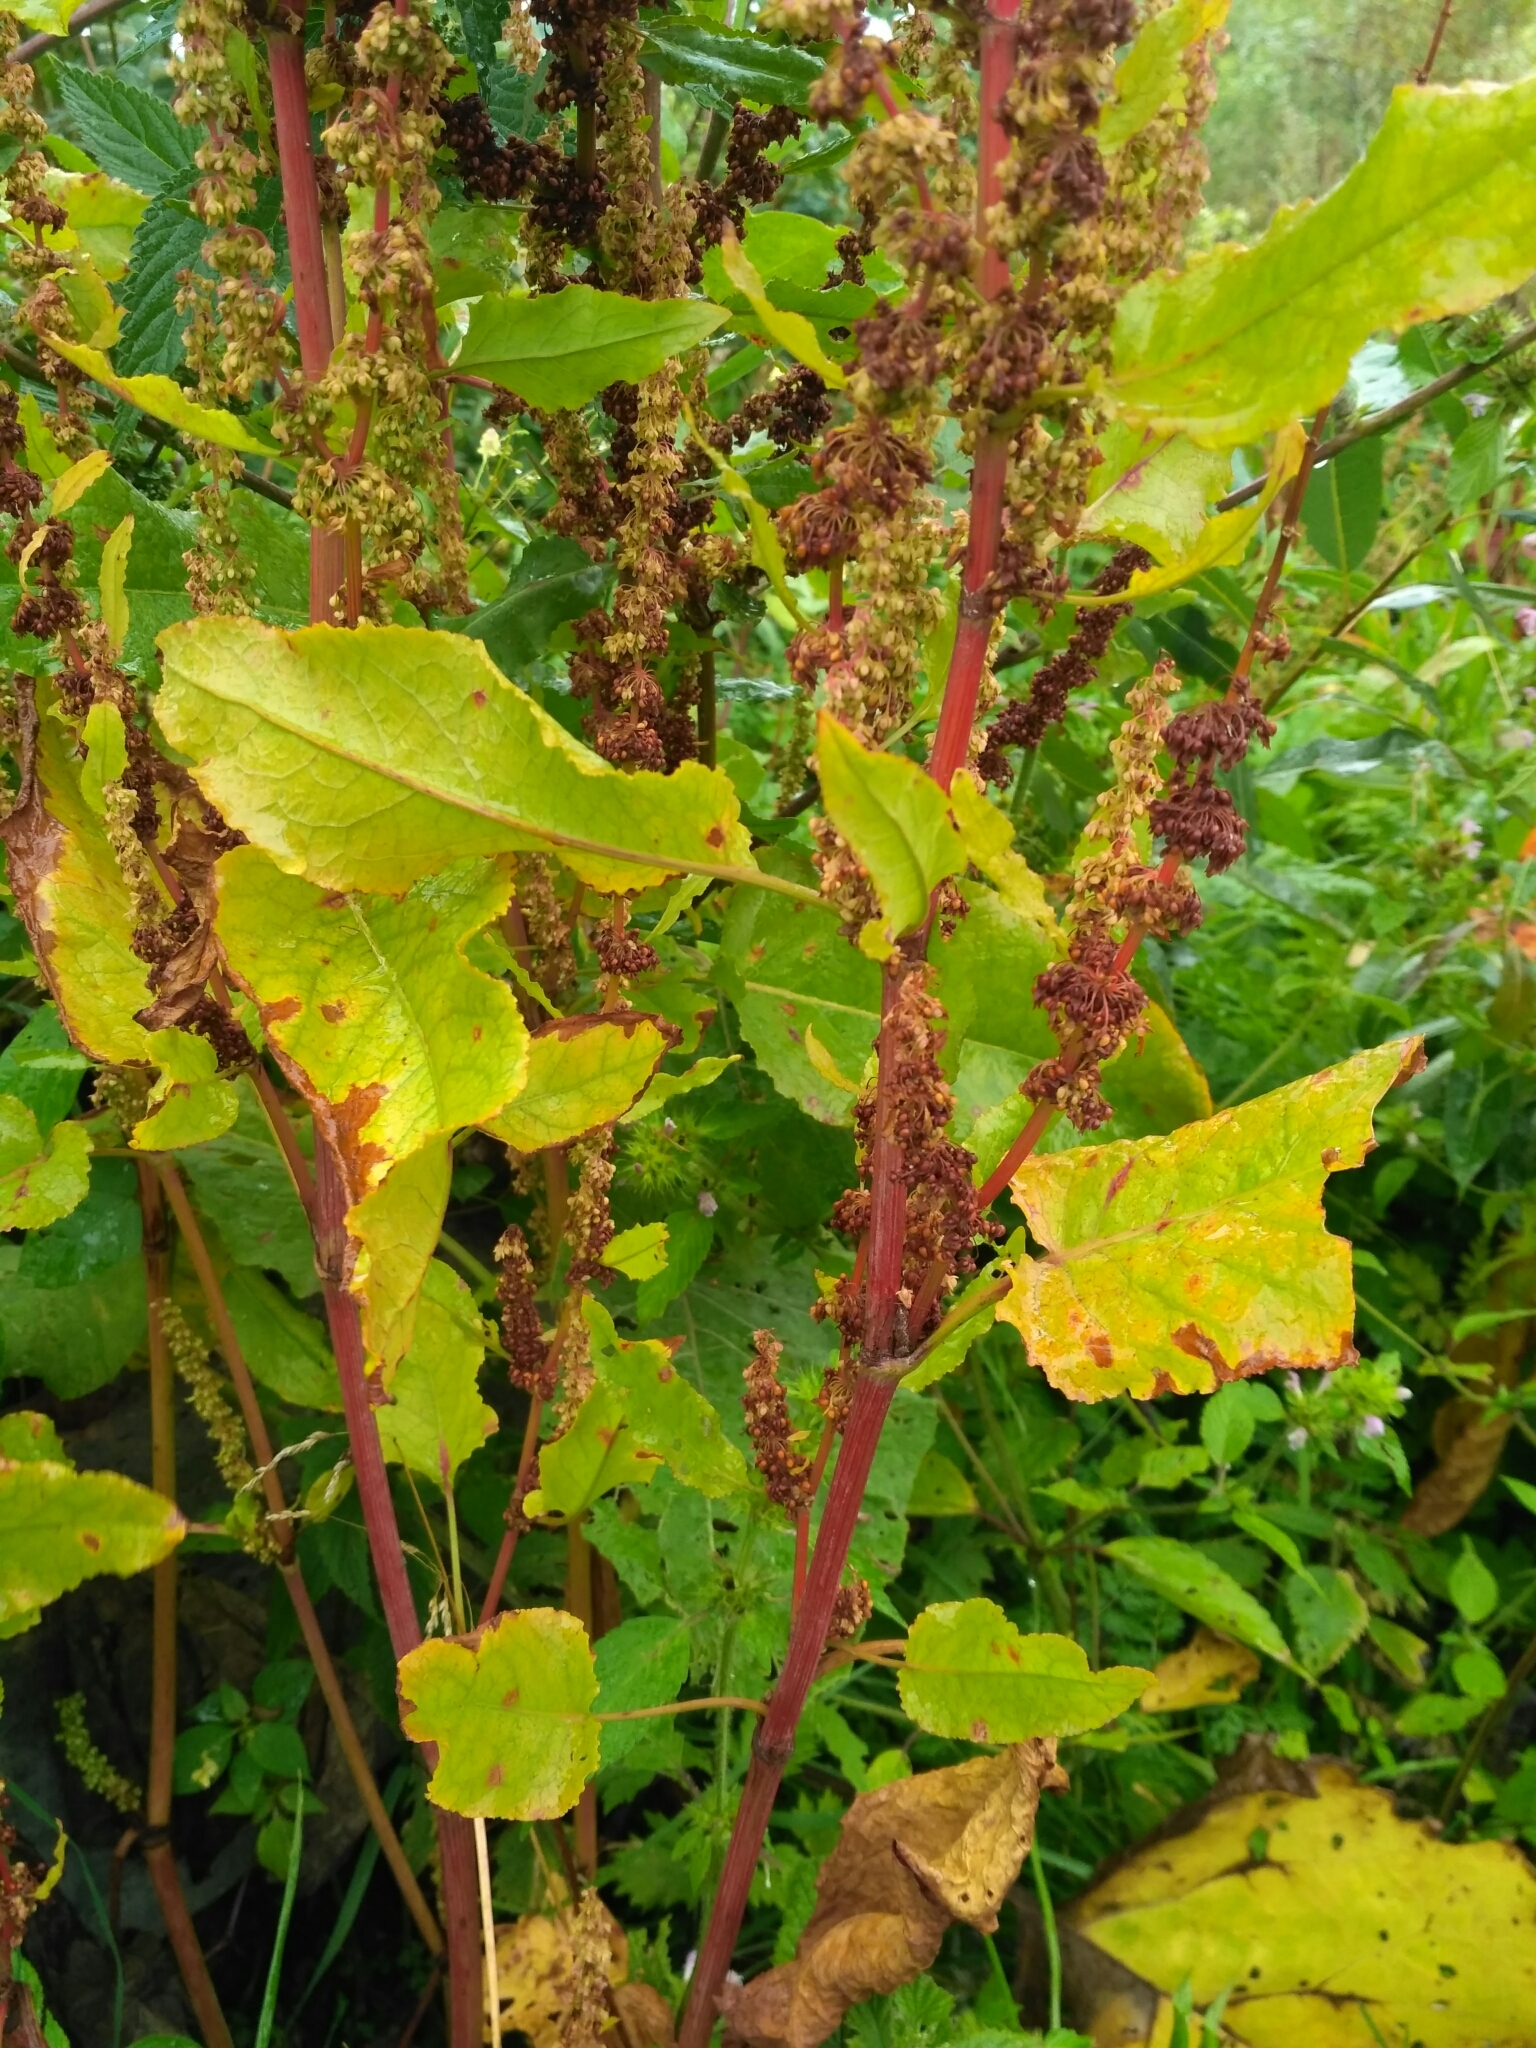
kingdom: Plantae
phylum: Tracheophyta
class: Magnoliopsida
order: Caryophyllales
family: Polygonaceae
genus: Rumex
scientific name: Rumex obtusifolius
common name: Bitter dock
